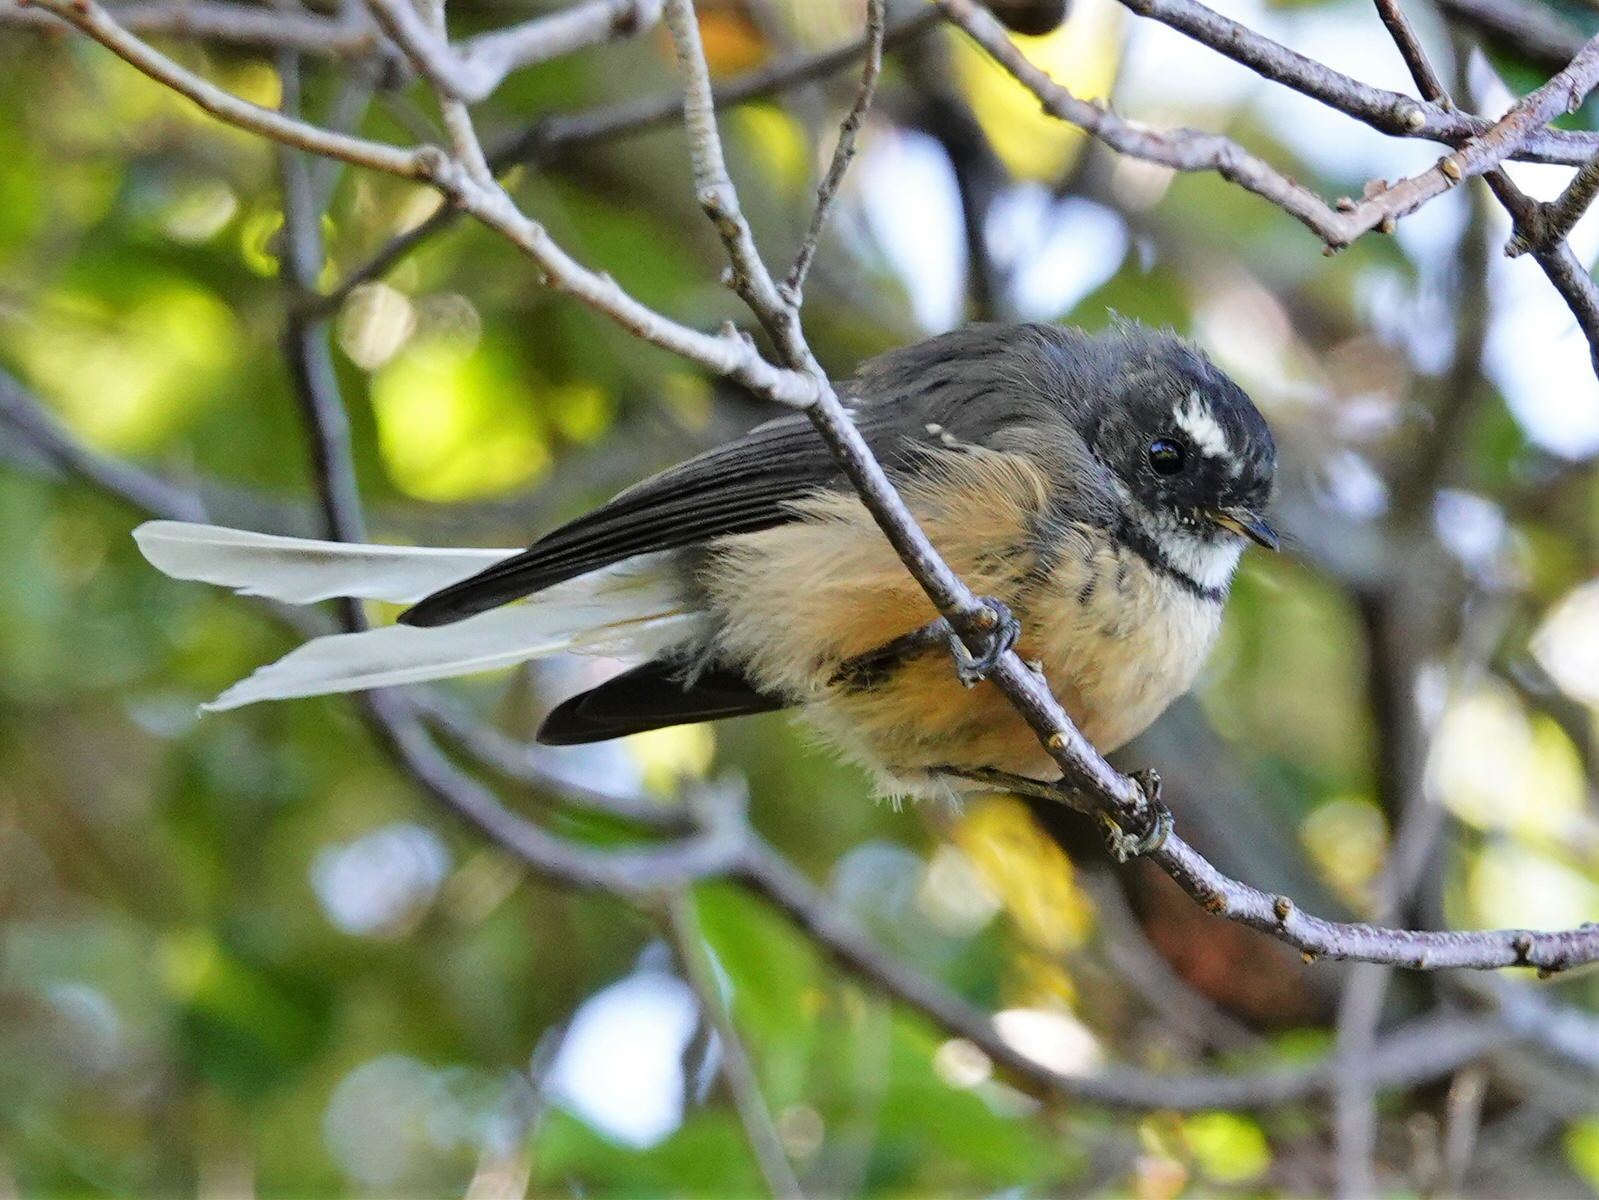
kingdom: Animalia
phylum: Chordata
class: Aves
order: Passeriformes
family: Rhipiduridae
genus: Rhipidura
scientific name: Rhipidura fuliginosa
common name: New zealand fantail
